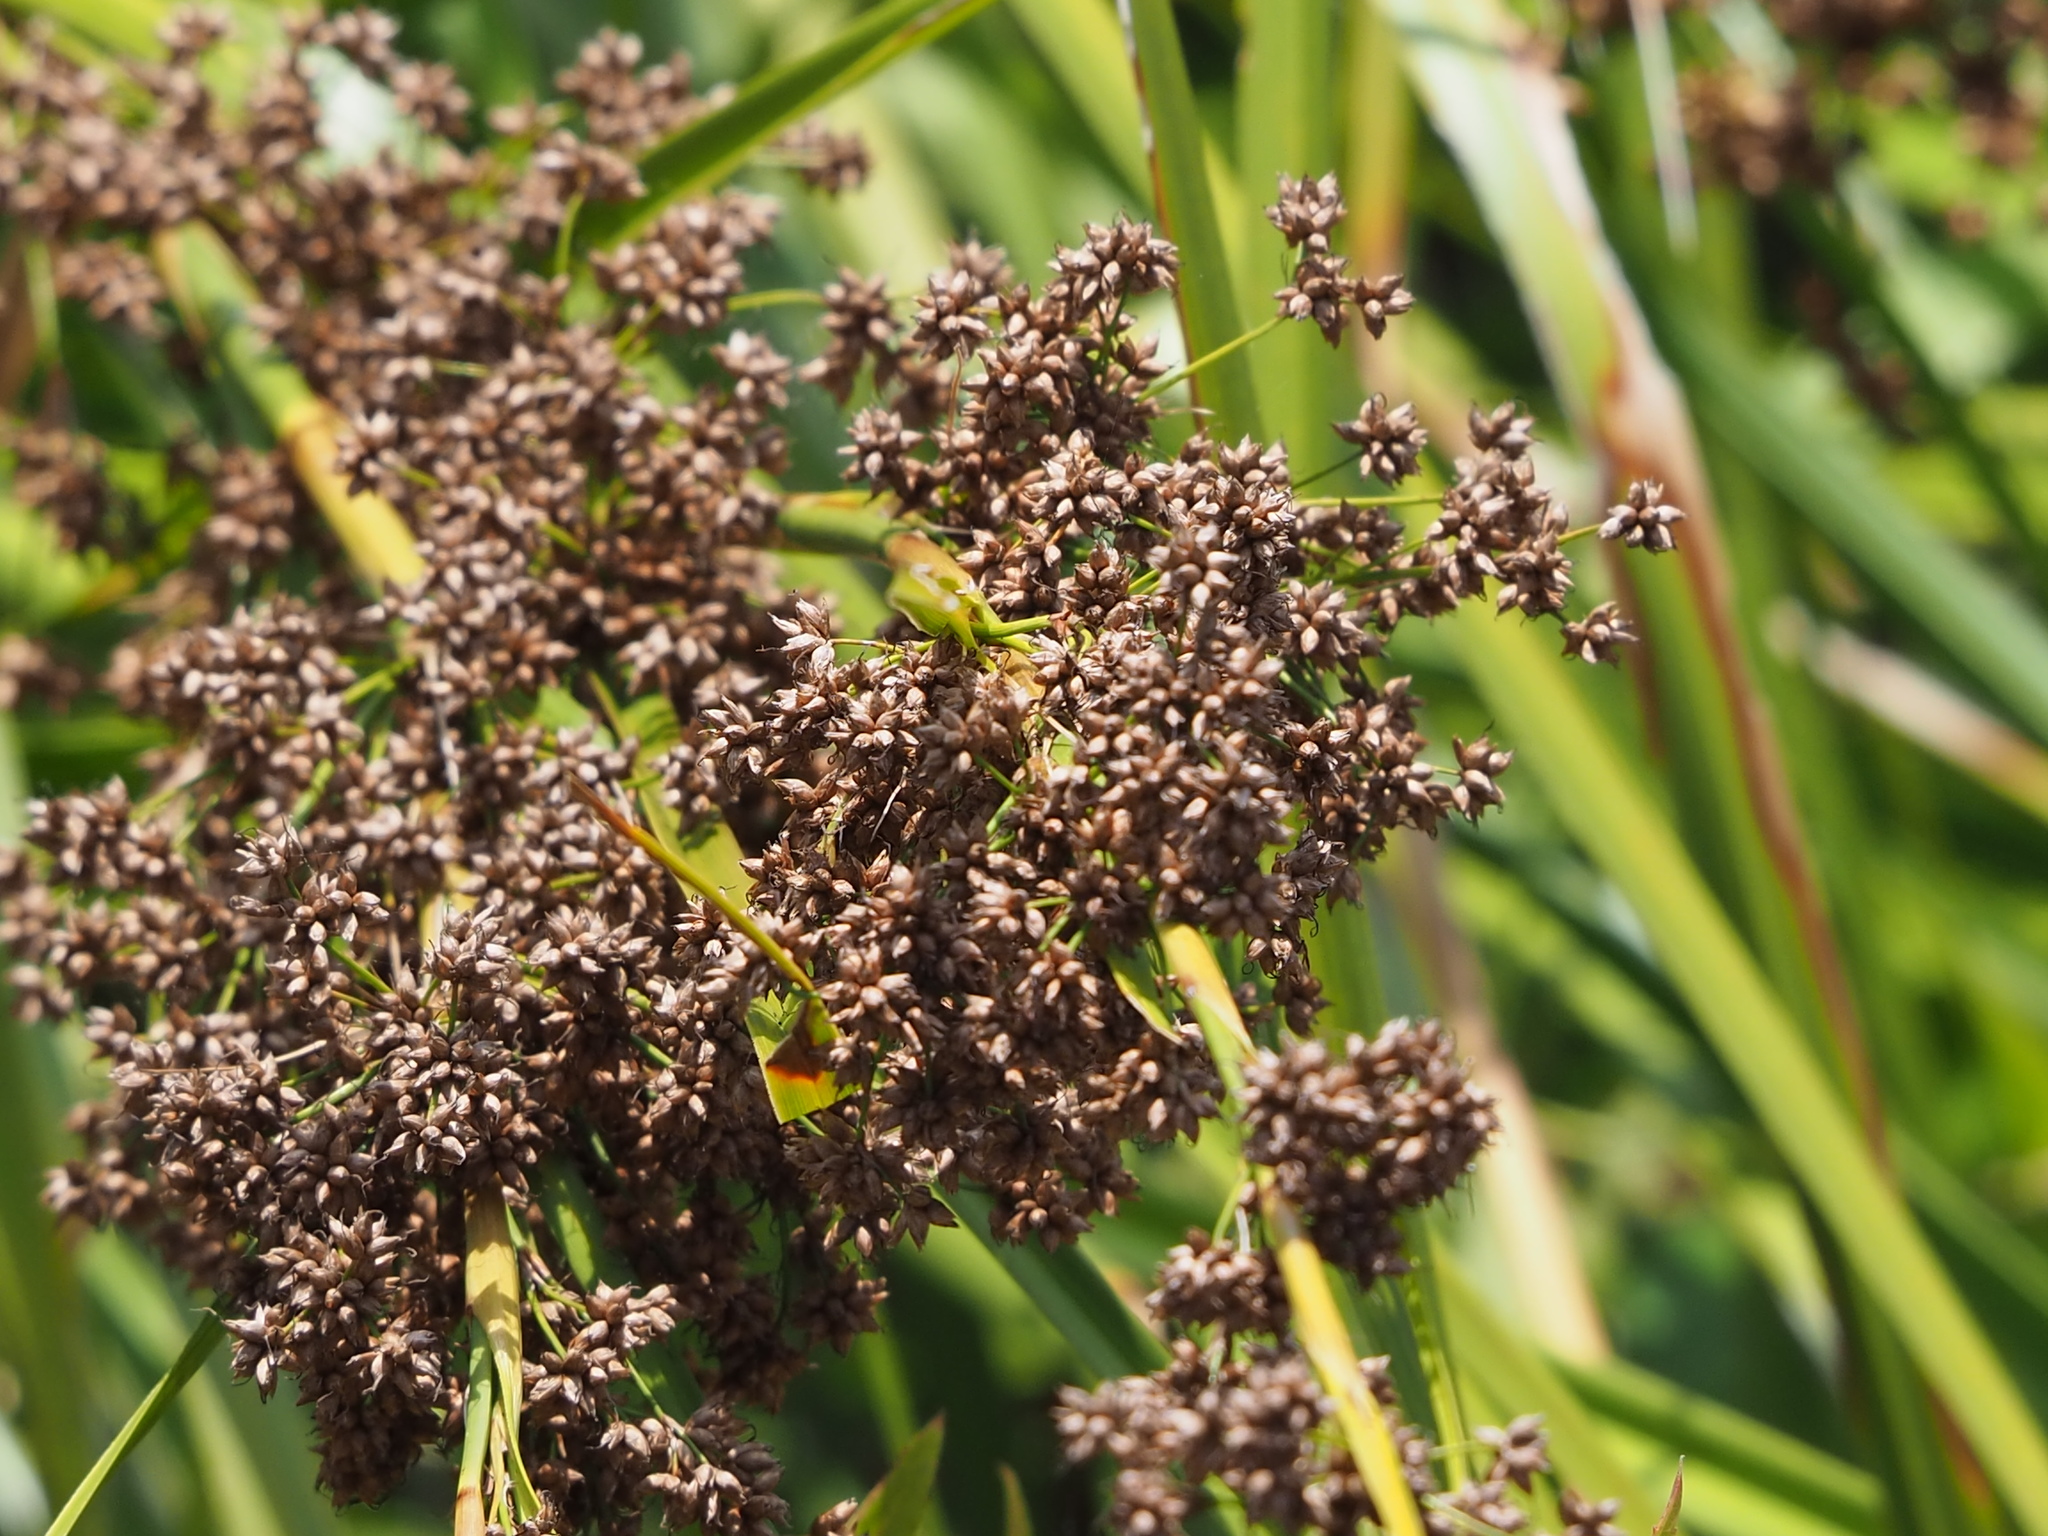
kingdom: Plantae
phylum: Tracheophyta
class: Liliopsida
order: Poales
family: Cyperaceae
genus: Cladium
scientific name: Cladium mariscus
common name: Great fen-sedge
